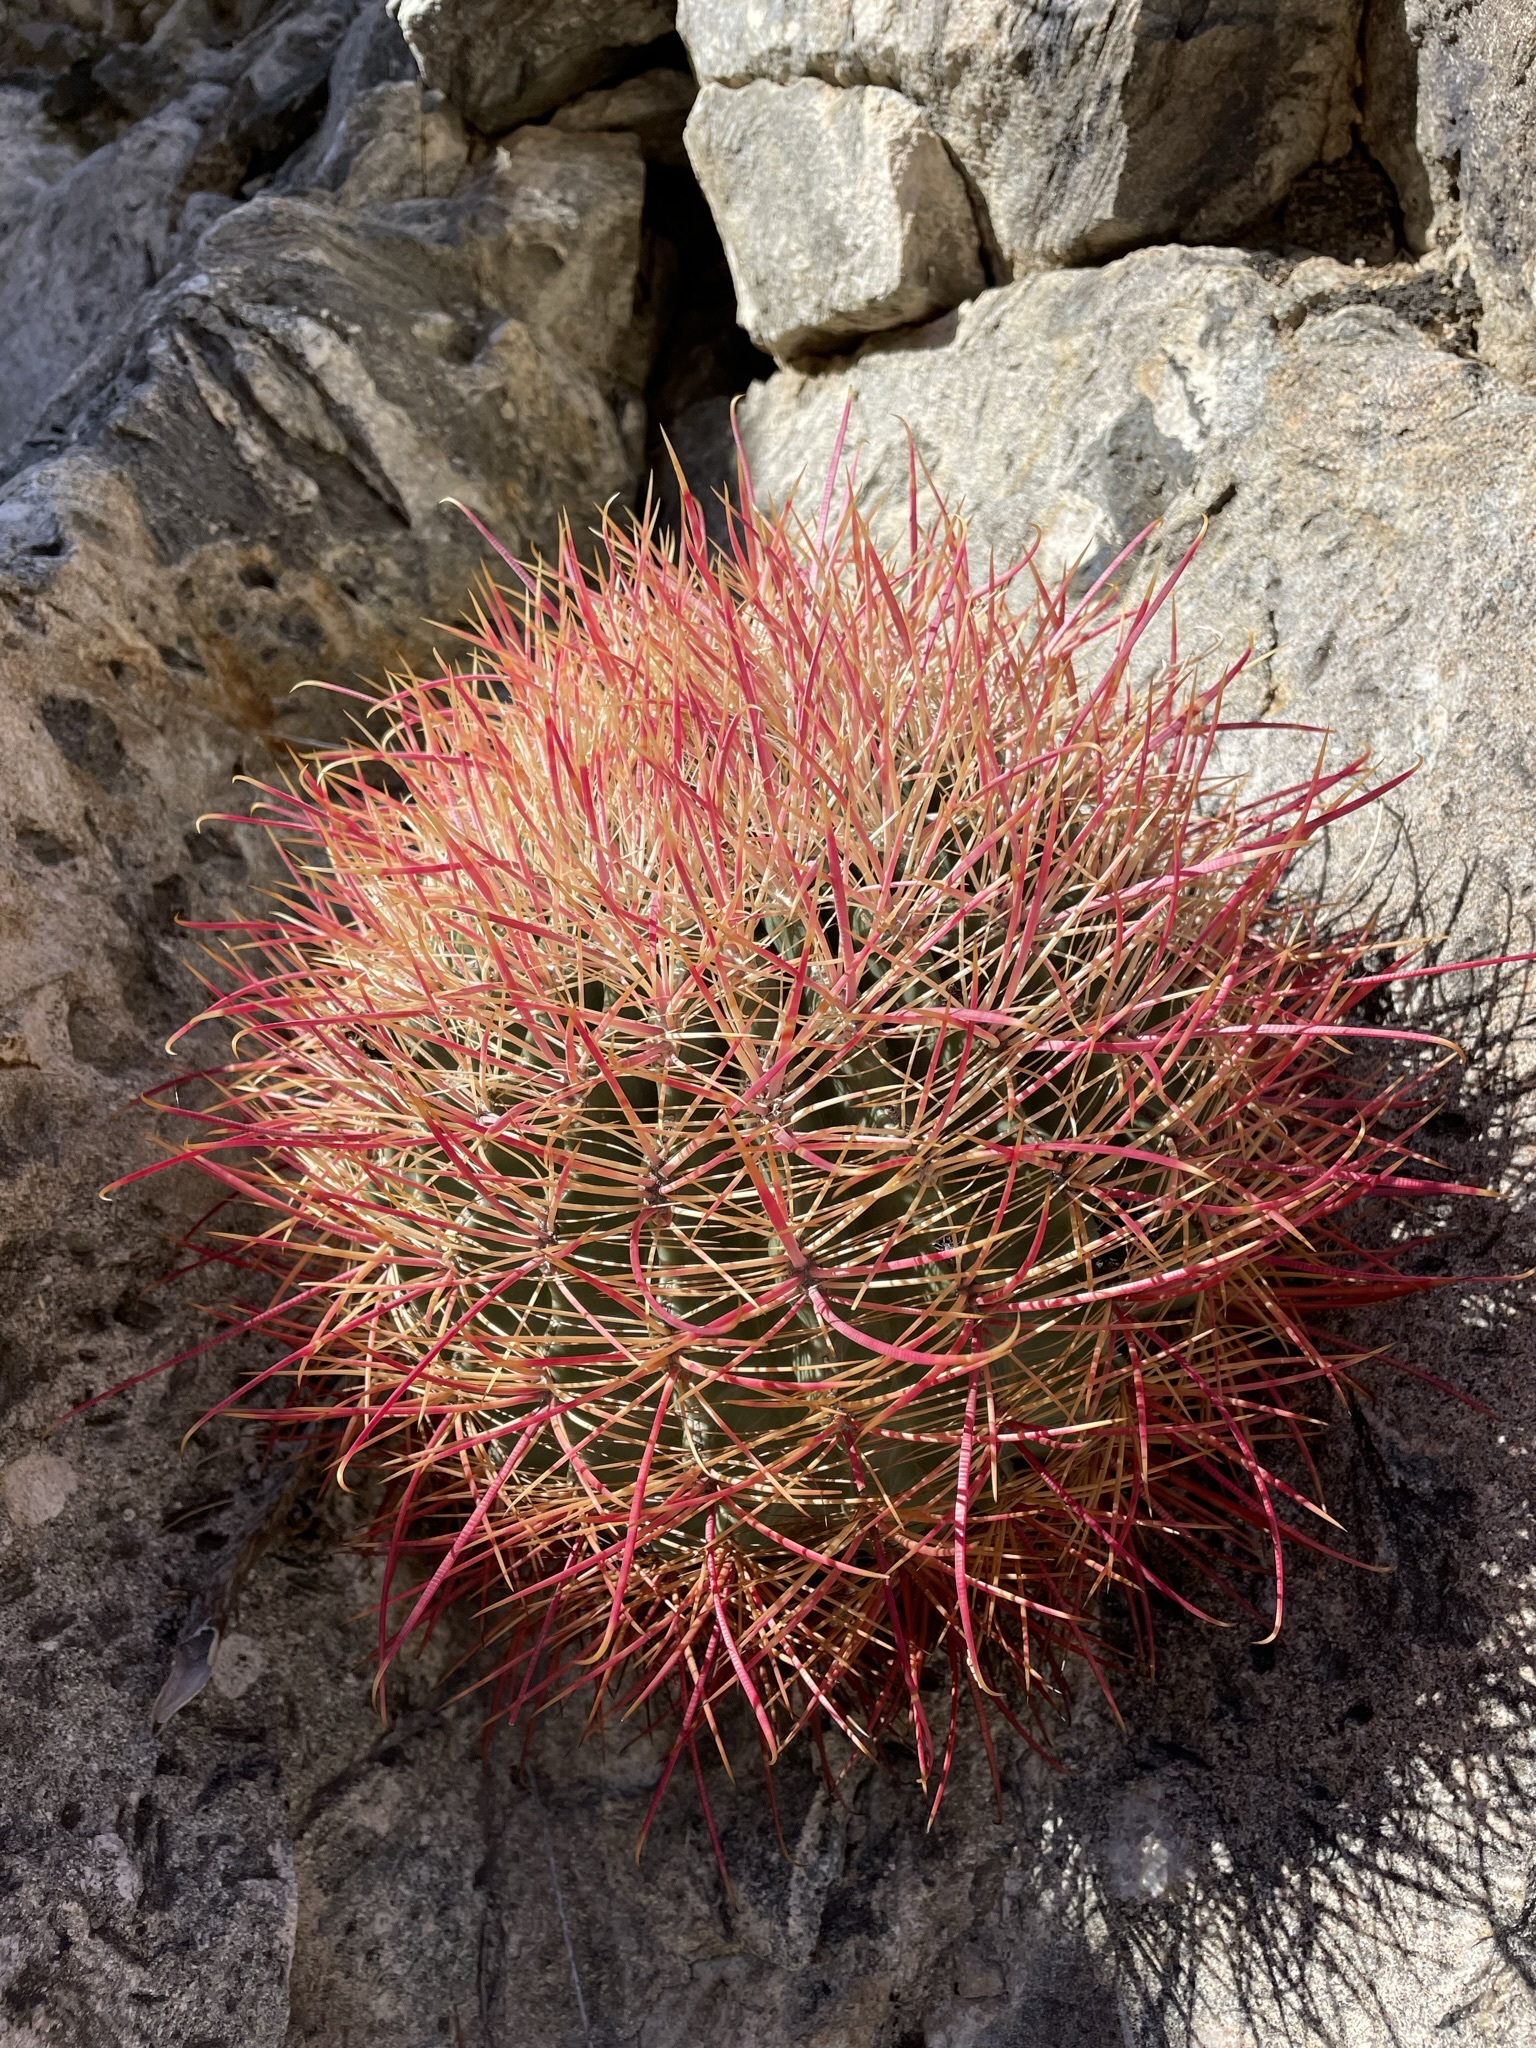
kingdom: Plantae
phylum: Tracheophyta
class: Magnoliopsida
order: Caryophyllales
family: Cactaceae
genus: Ferocactus
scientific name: Ferocactus cylindraceus
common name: California barrel cactus
